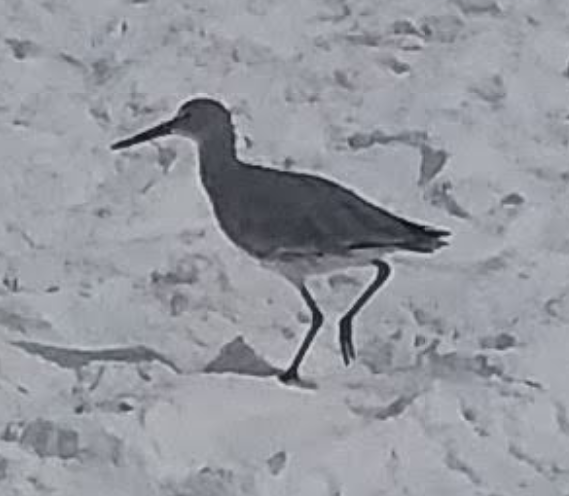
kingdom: Animalia
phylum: Chordata
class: Aves
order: Charadriiformes
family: Scolopacidae
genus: Tringa
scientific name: Tringa semipalmata
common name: Willet
